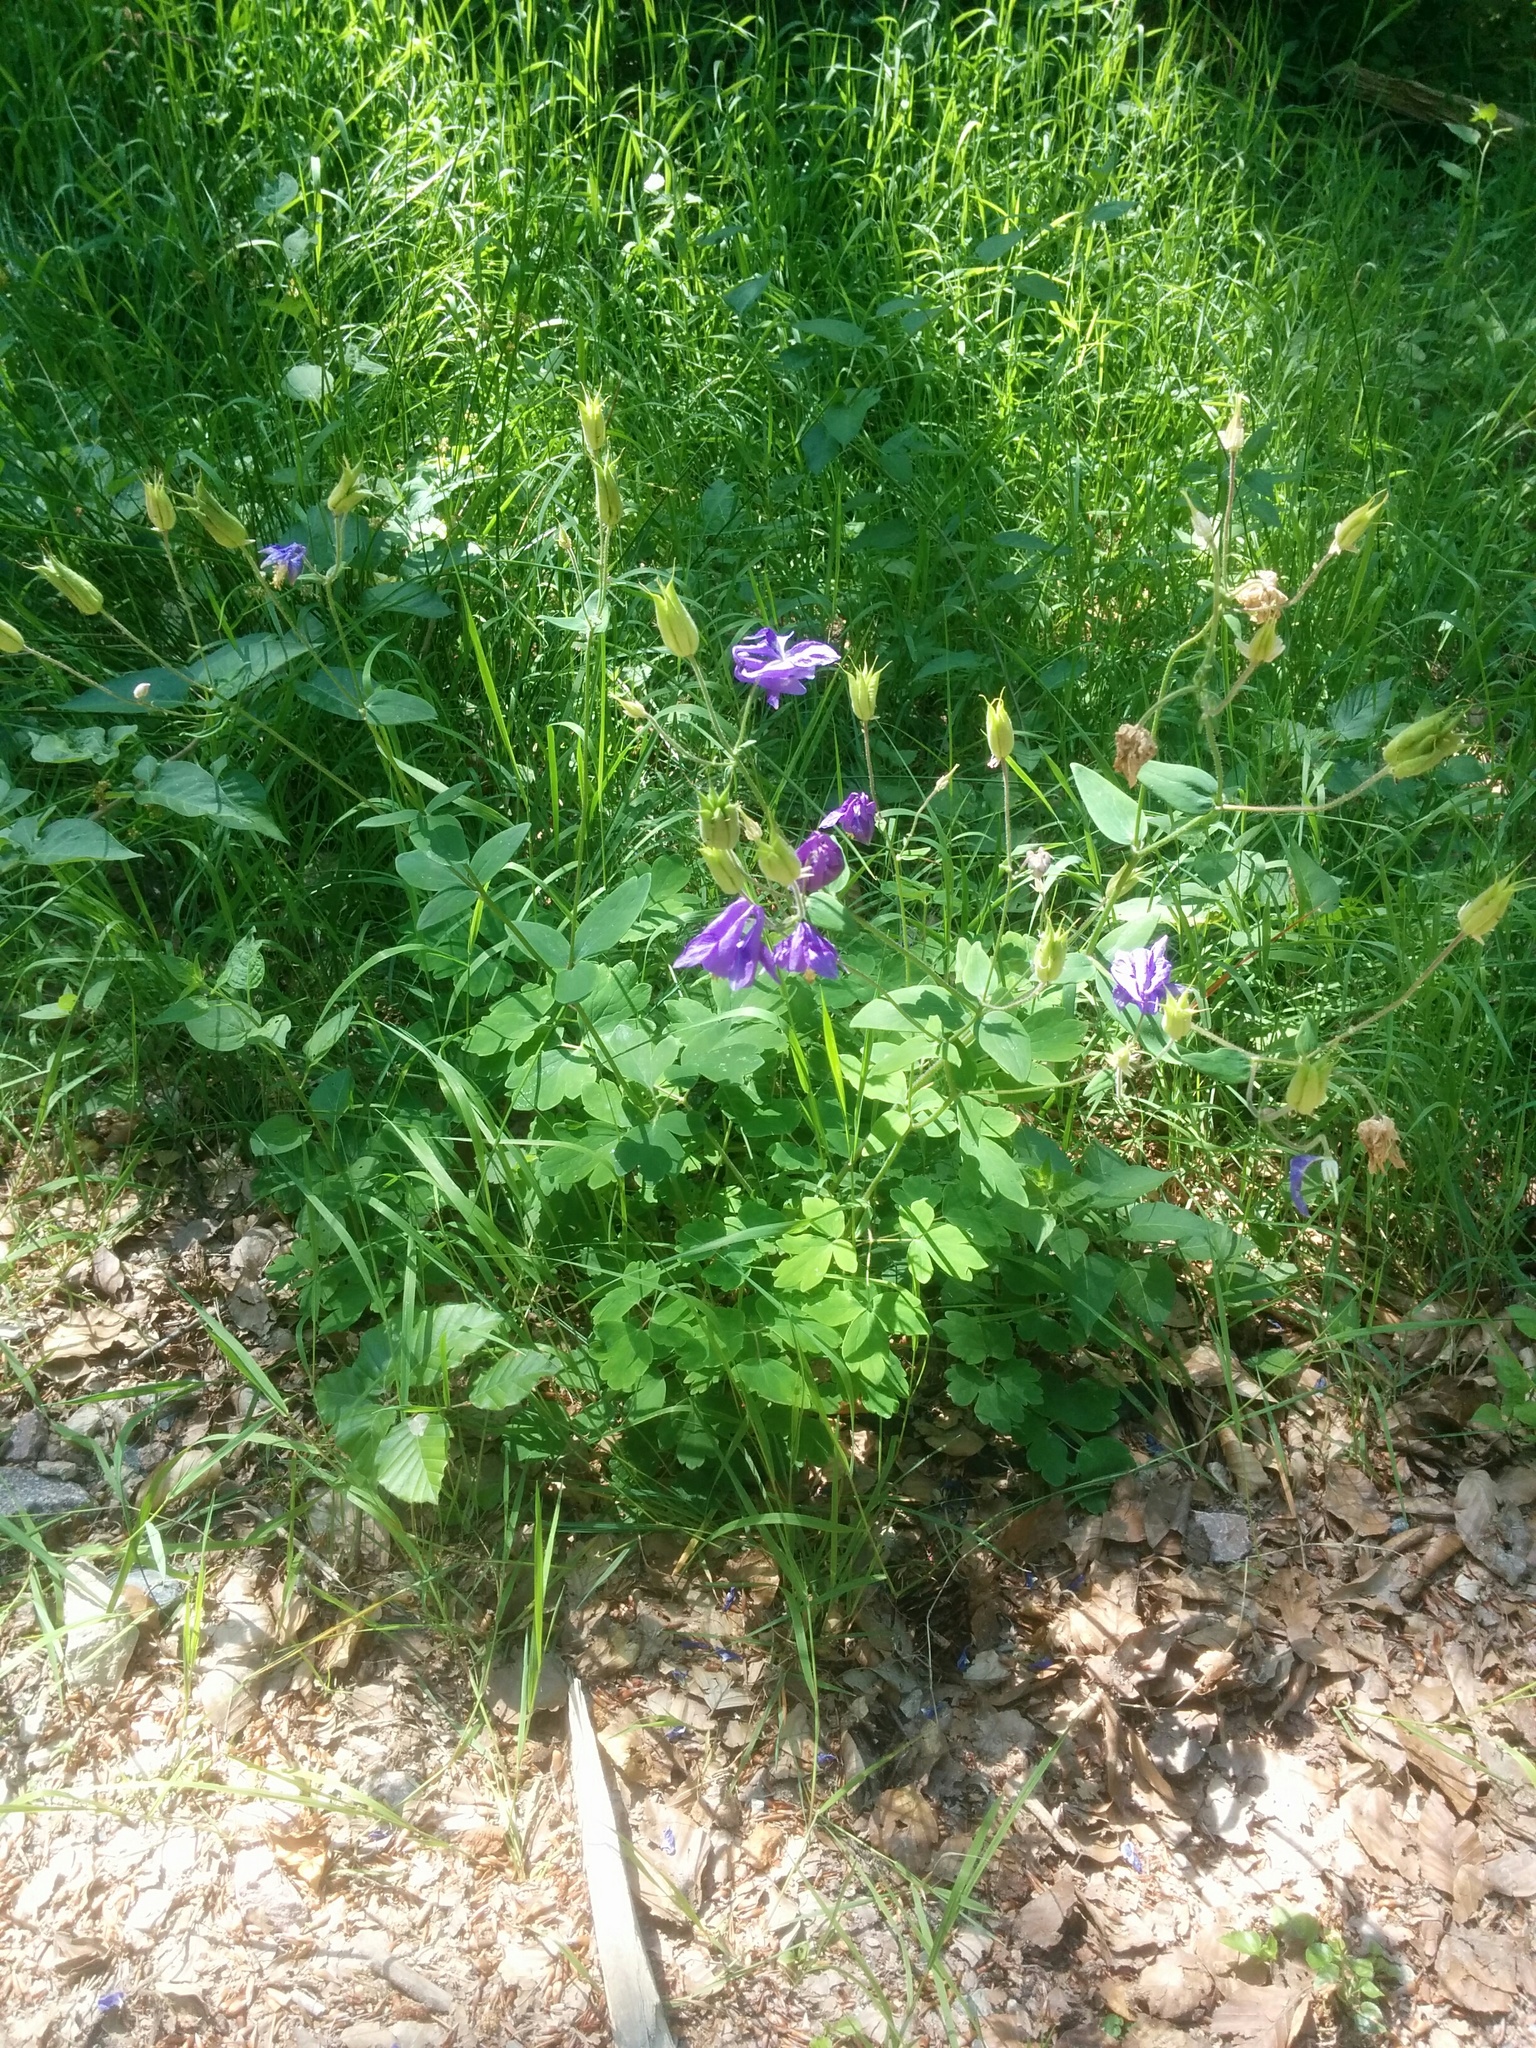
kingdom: Plantae
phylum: Tracheophyta
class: Magnoliopsida
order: Ranunculales
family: Ranunculaceae
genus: Aquilegia
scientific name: Aquilegia vulgaris
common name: Columbine
